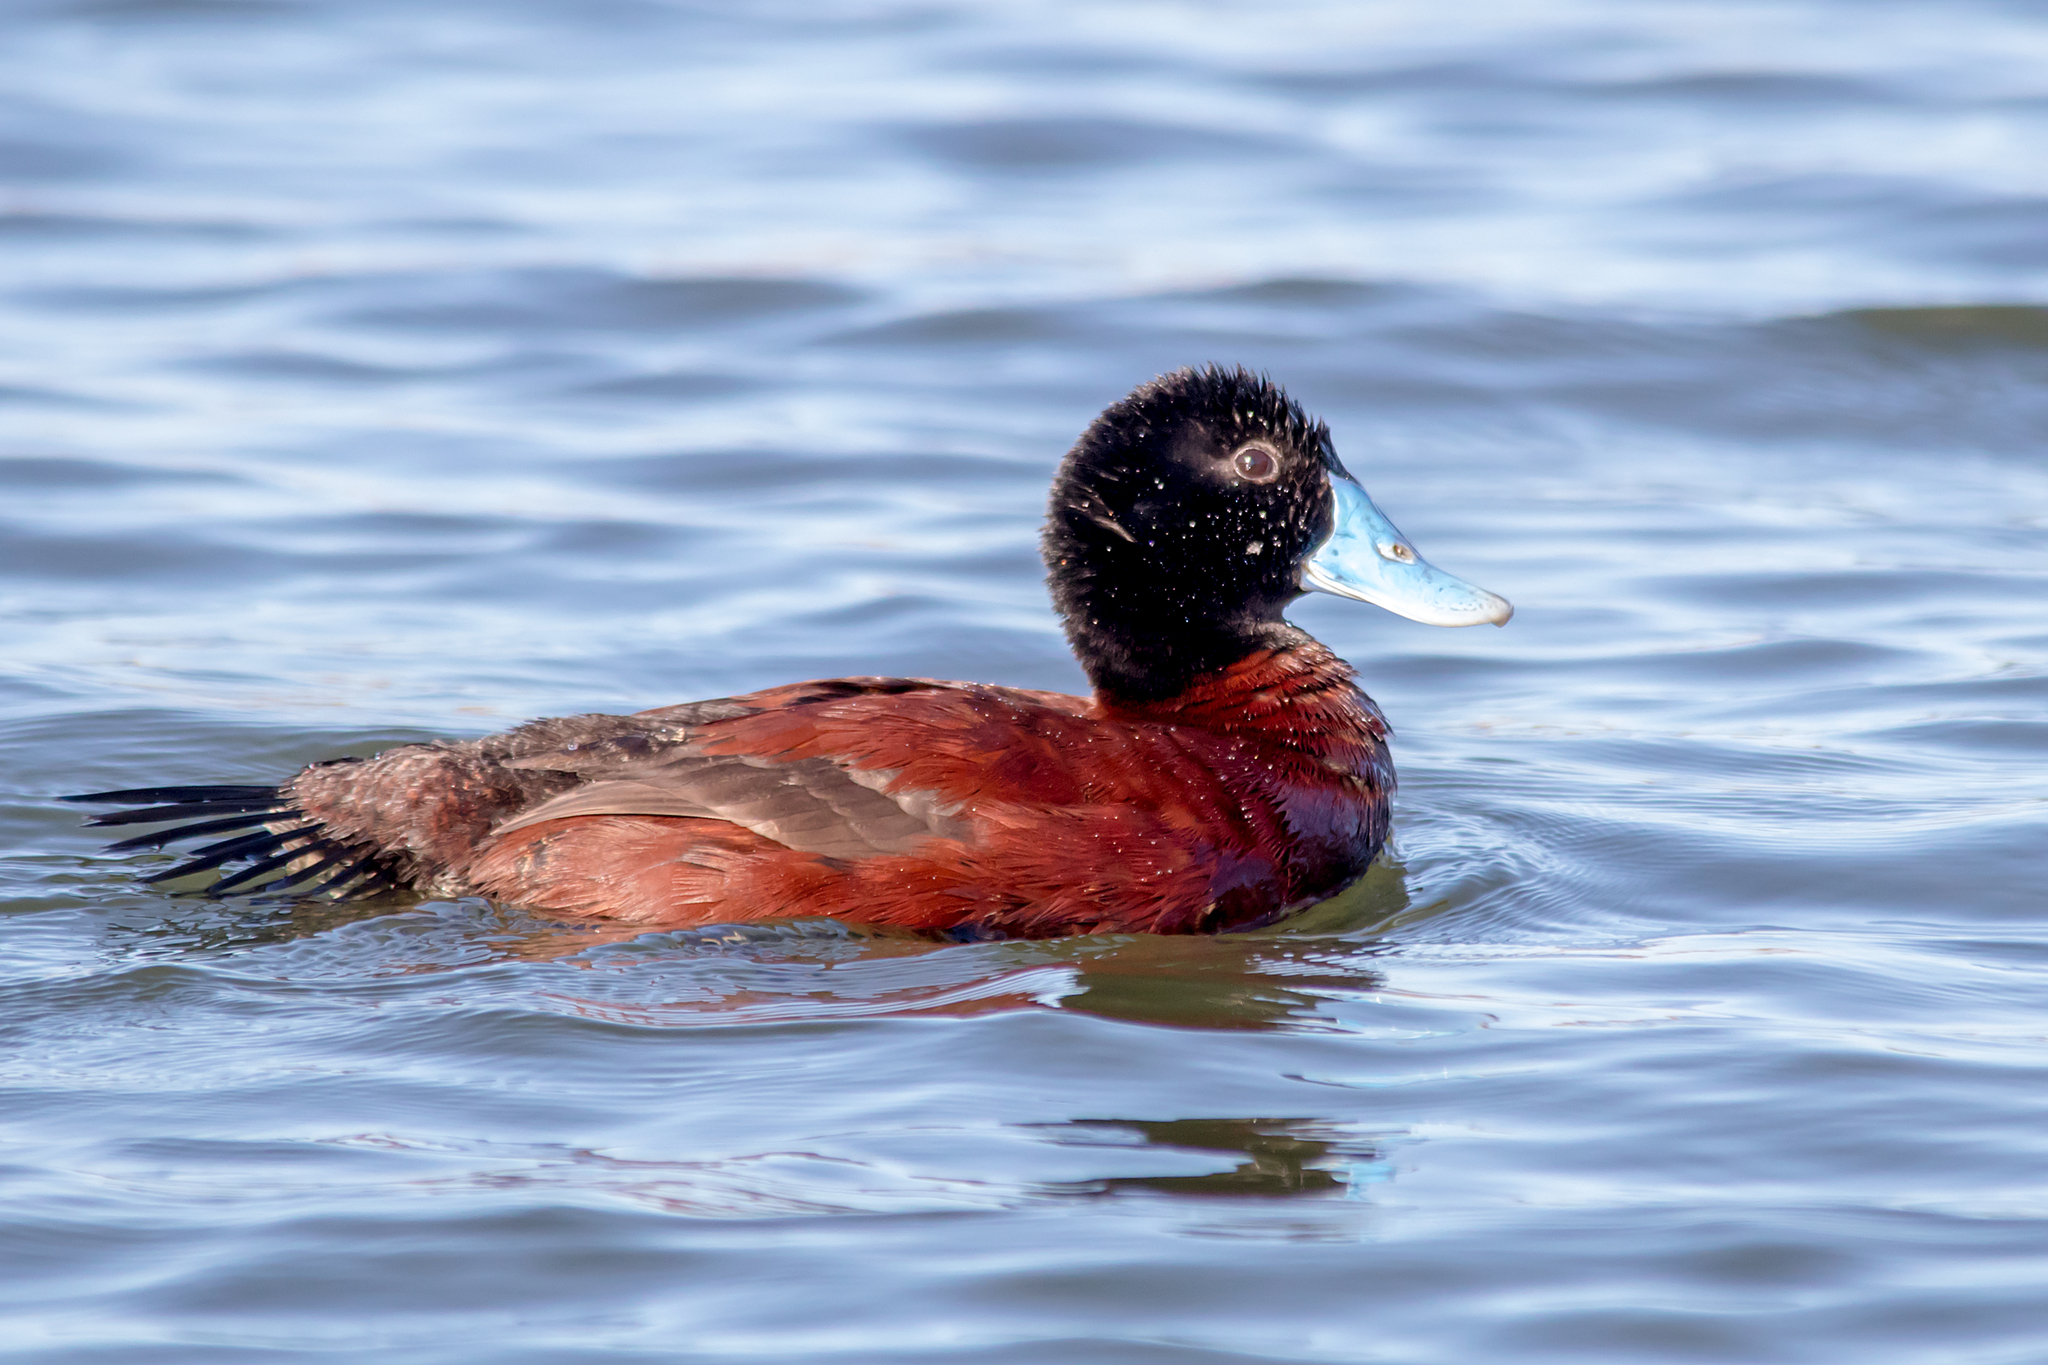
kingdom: Animalia
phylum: Chordata
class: Aves
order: Anseriformes
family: Anatidae
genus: Oxyura
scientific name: Oxyura australis
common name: Blue-billed duck
